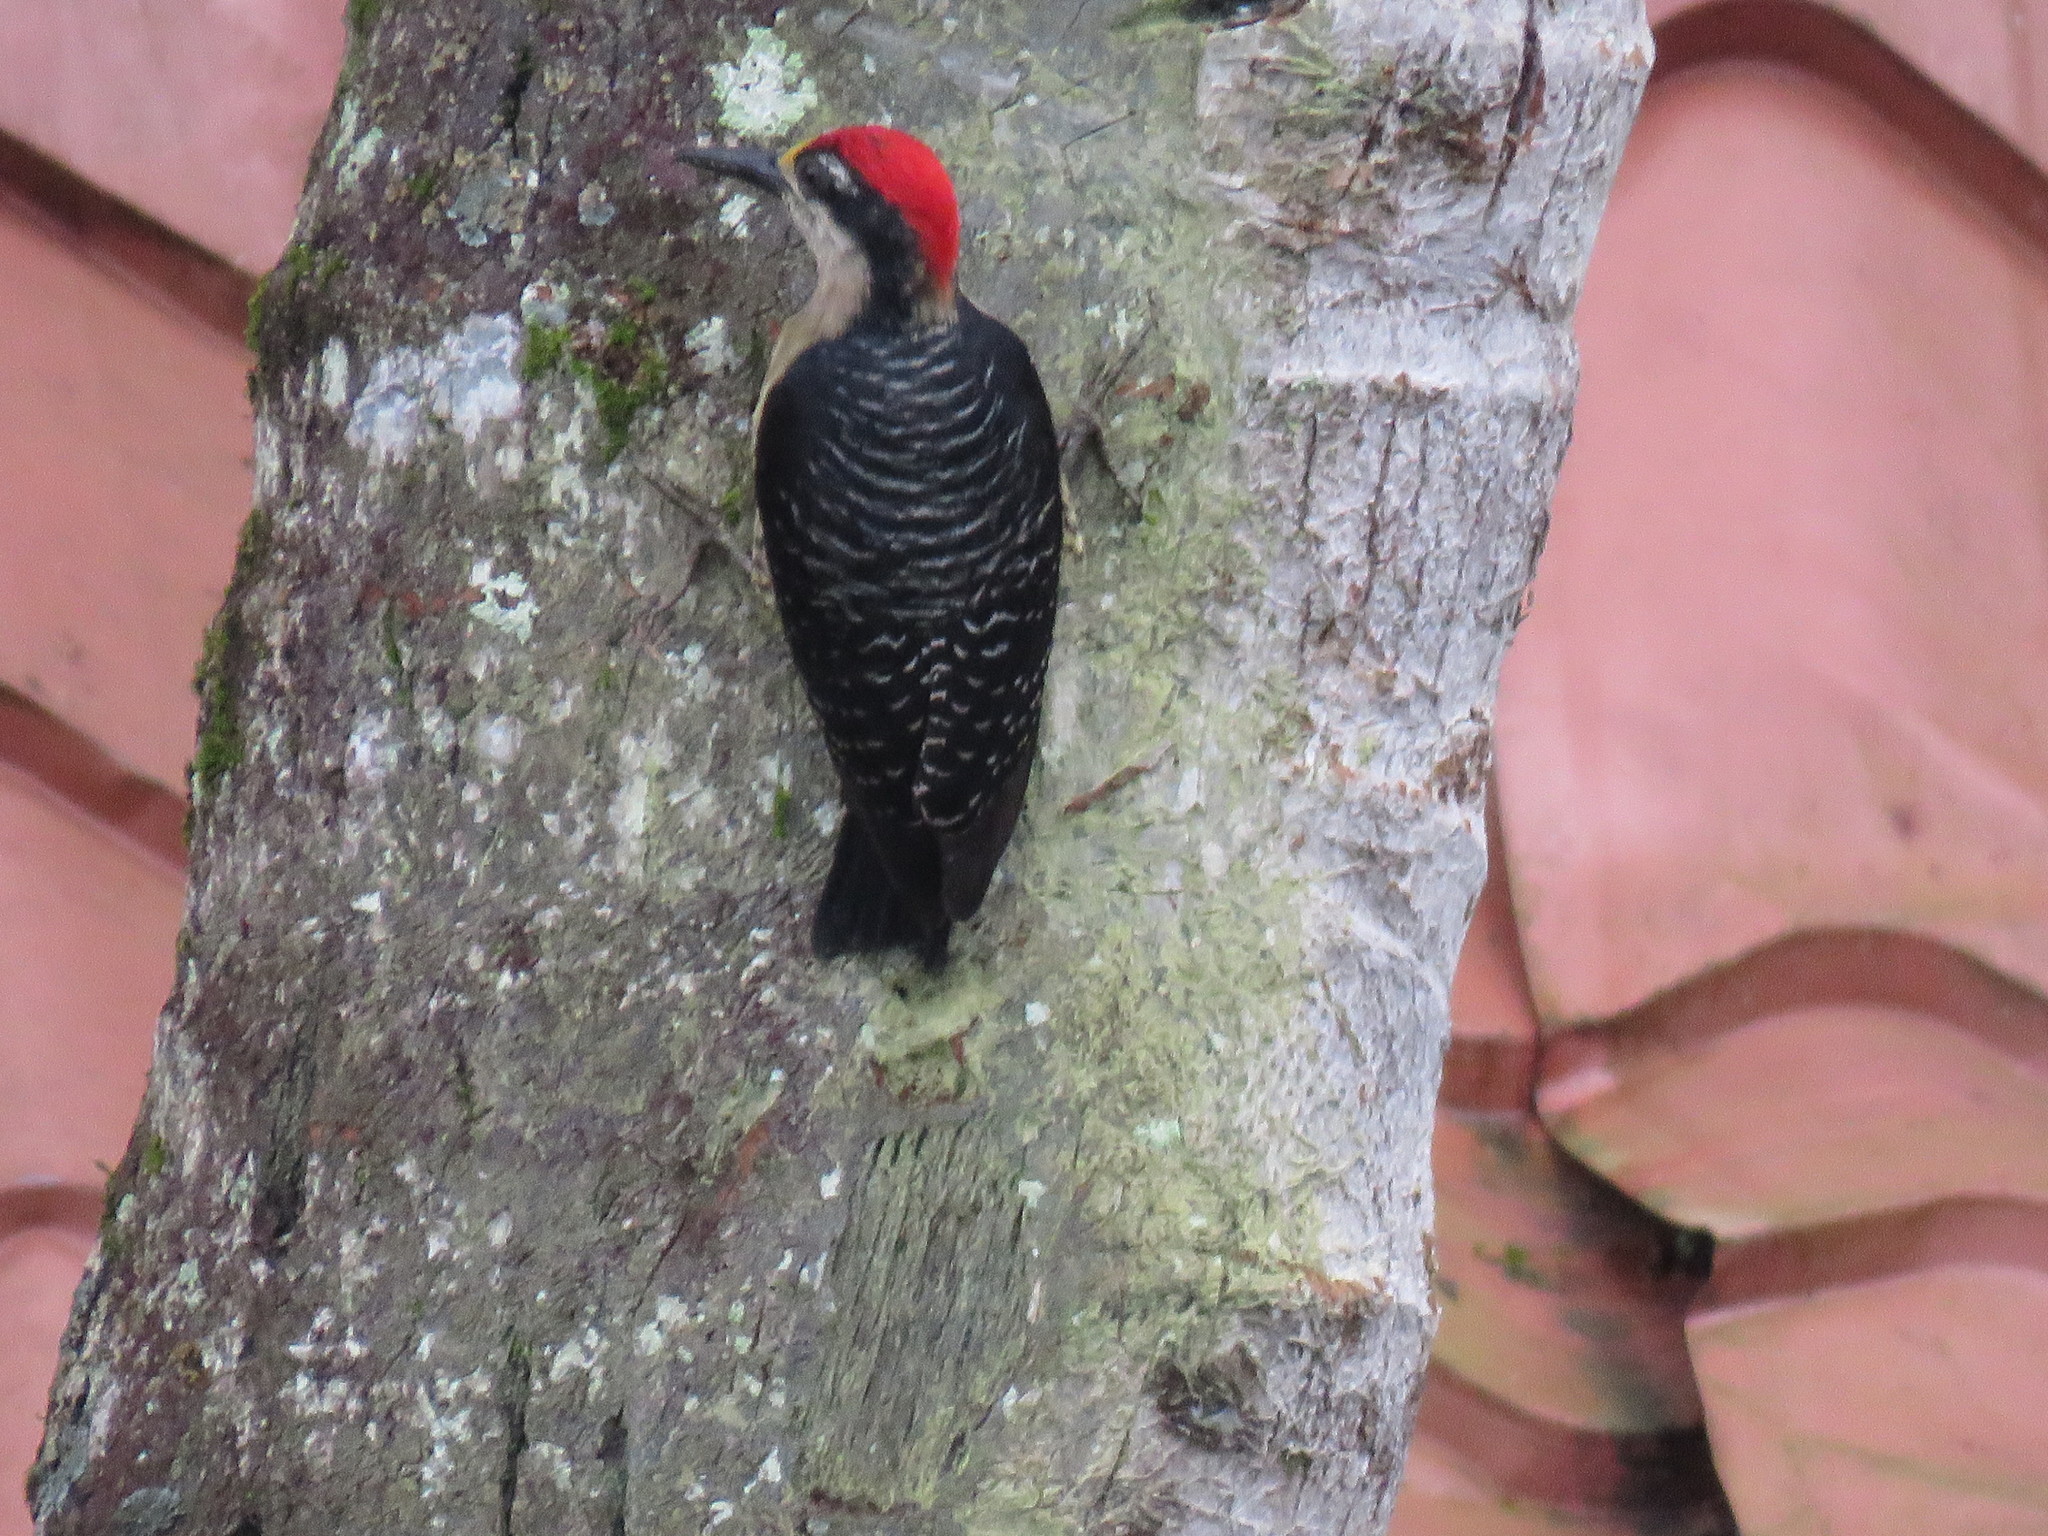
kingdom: Animalia
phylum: Chordata
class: Aves
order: Piciformes
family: Picidae
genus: Melanerpes
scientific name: Melanerpes pucherani
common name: Black-cheeked woodpecker
